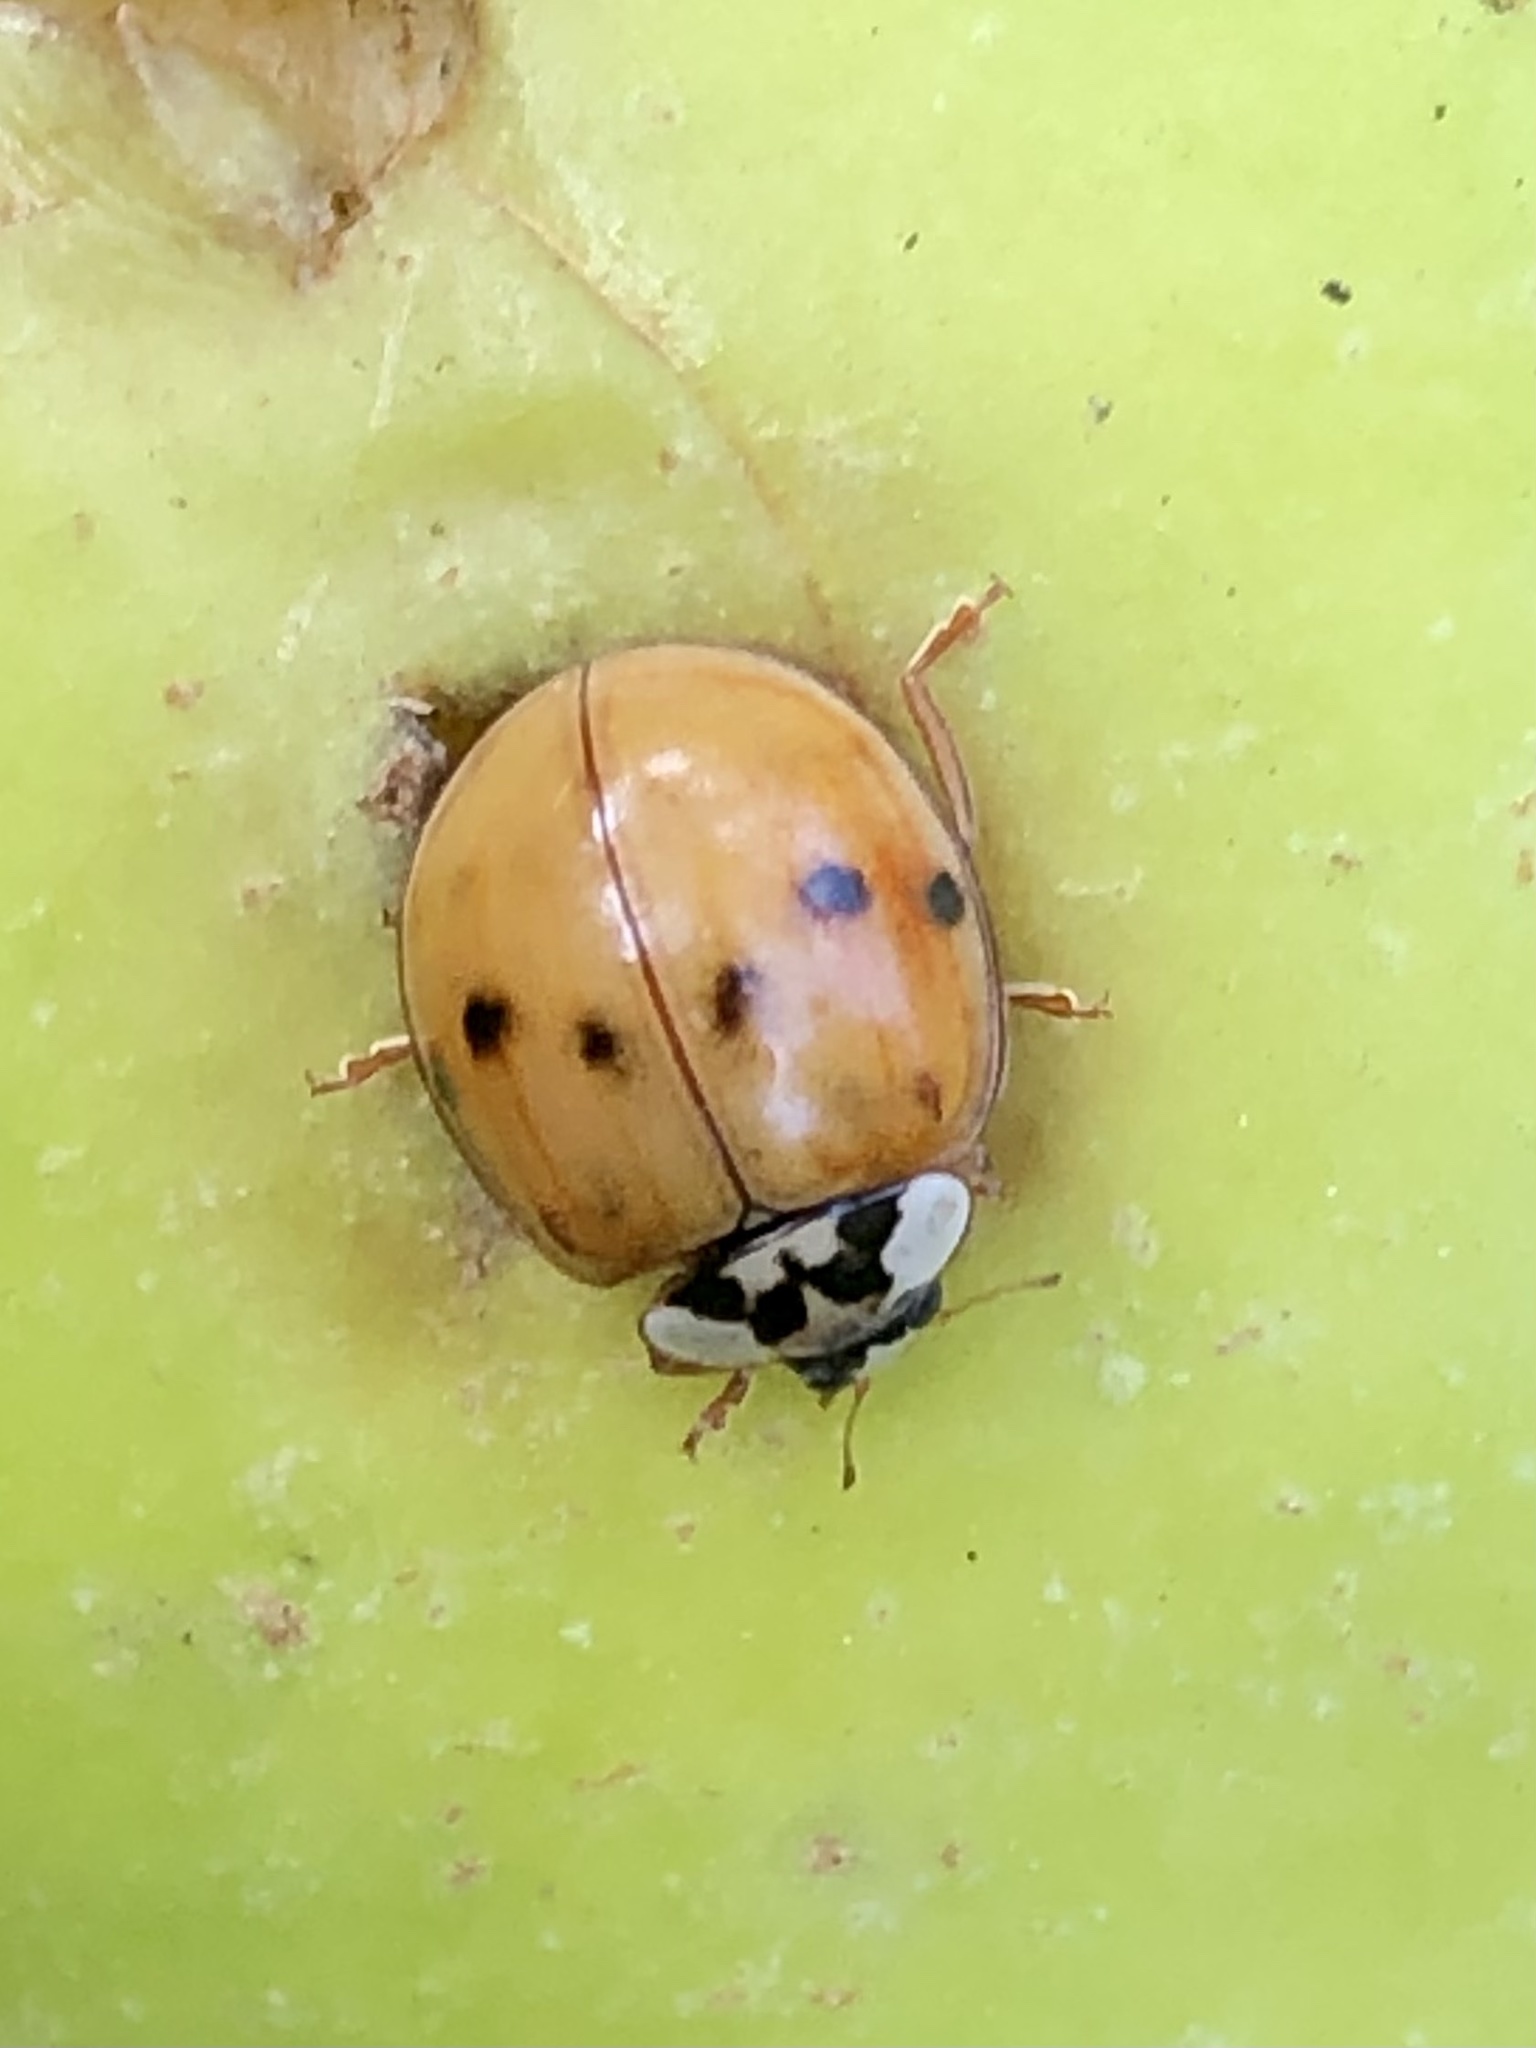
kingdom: Animalia
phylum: Arthropoda
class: Insecta
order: Coleoptera
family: Coccinellidae
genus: Harmonia
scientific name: Harmonia axyridis
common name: Harlequin ladybird
